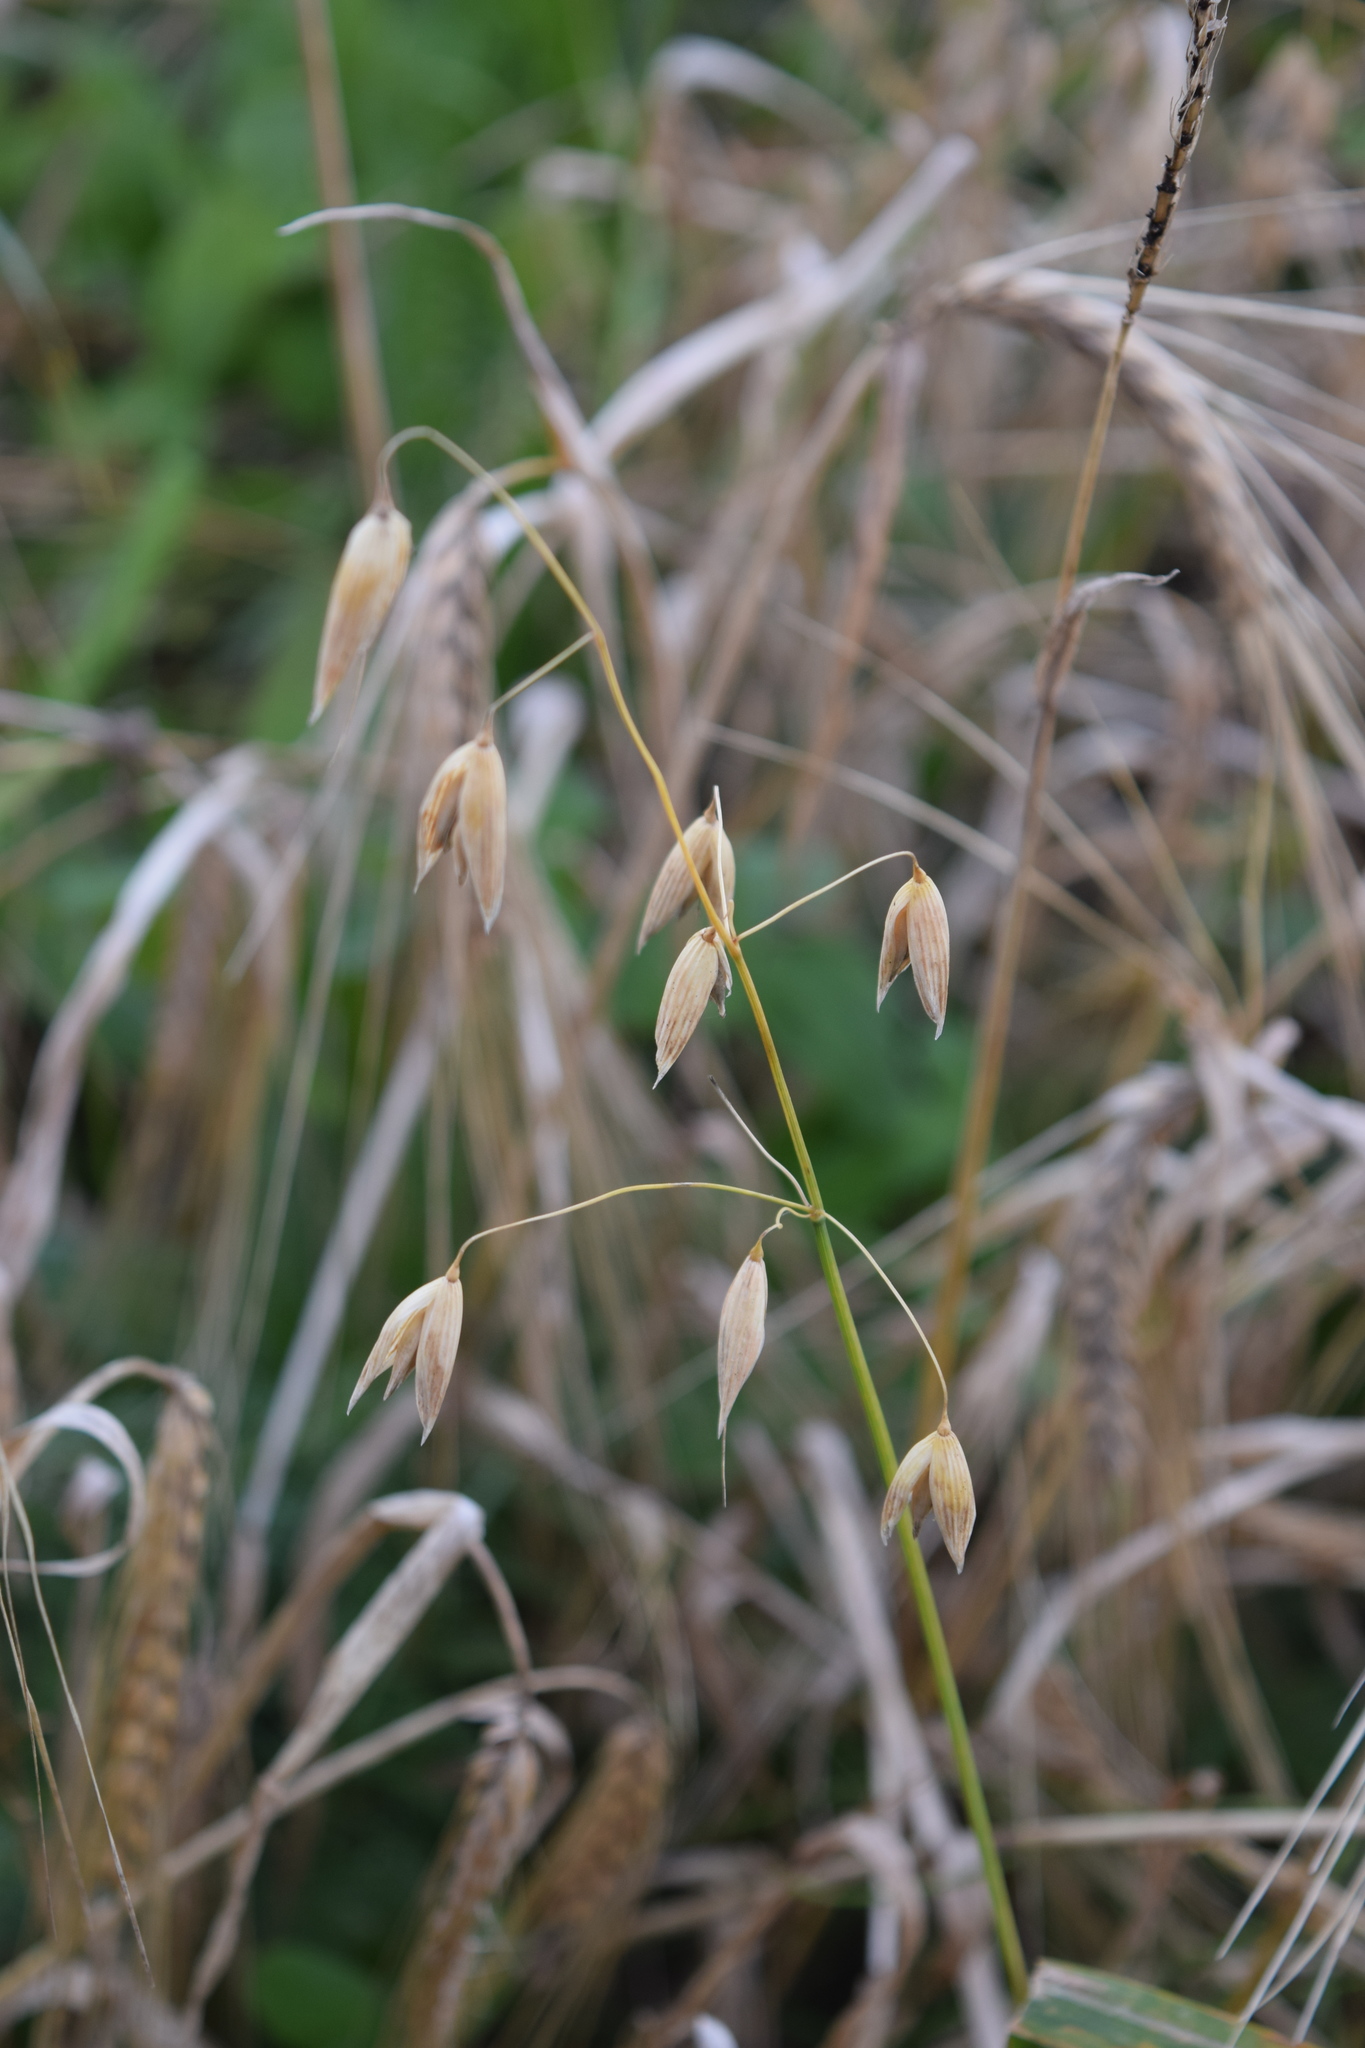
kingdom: Plantae
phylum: Tracheophyta
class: Liliopsida
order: Poales
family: Poaceae
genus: Avena
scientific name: Avena sativa
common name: Oat
